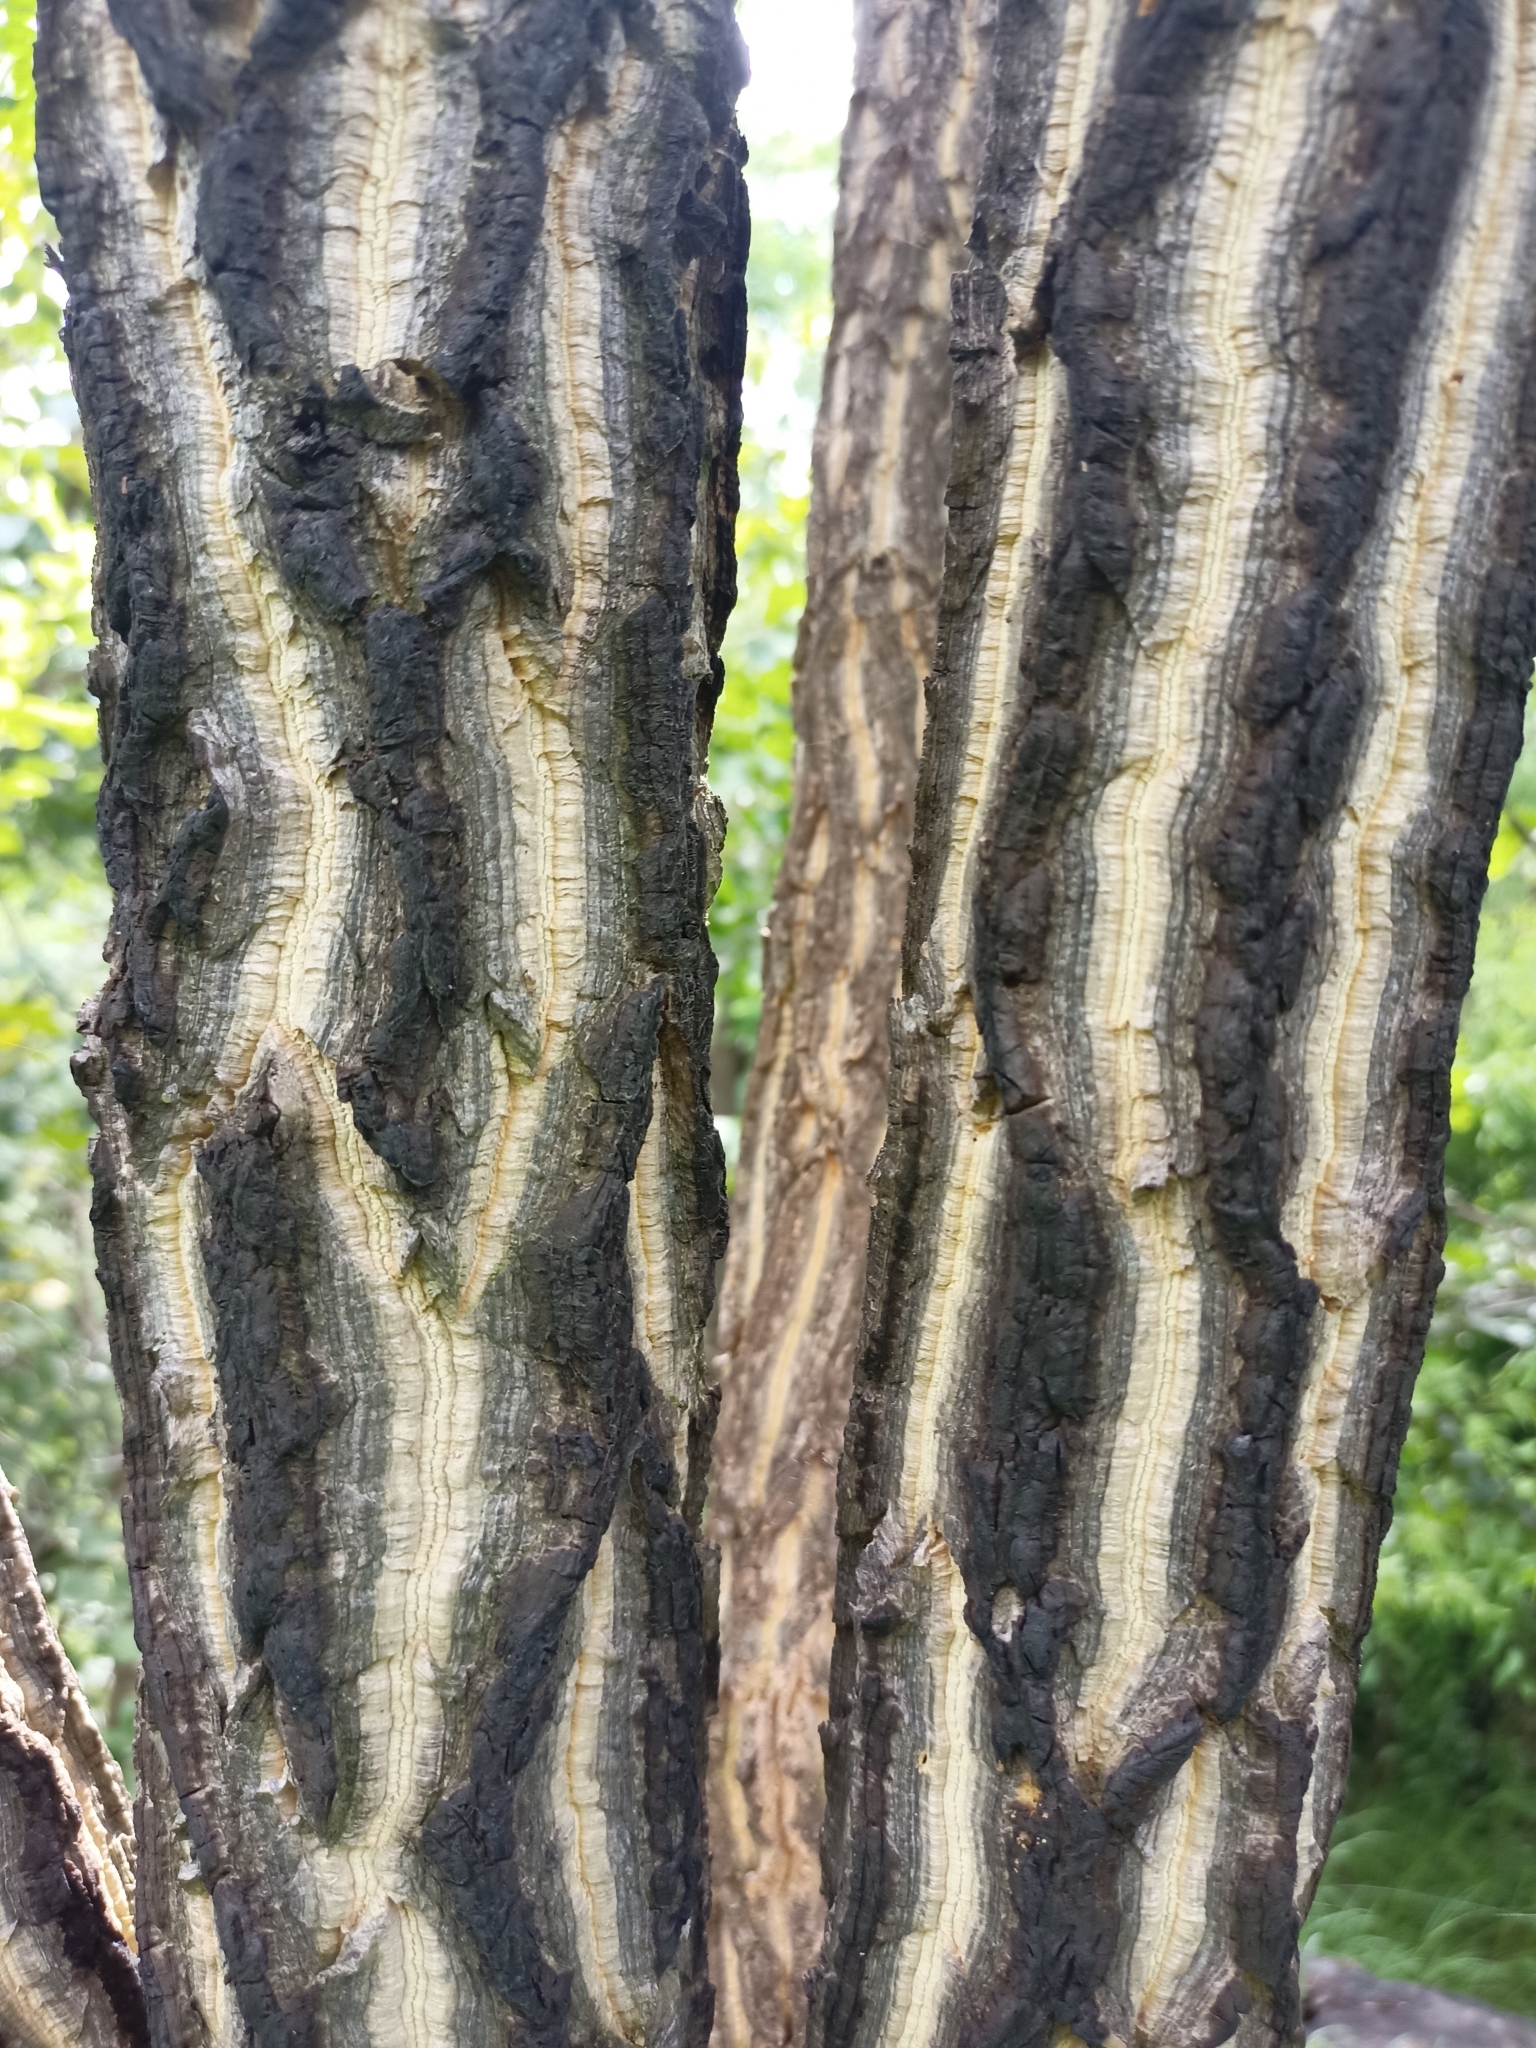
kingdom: Plantae
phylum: Tracheophyta
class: Magnoliopsida
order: Sapindales
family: Rutaceae
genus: Chloroxylon
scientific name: Chloroxylon swietenia
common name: East indian satinwood
